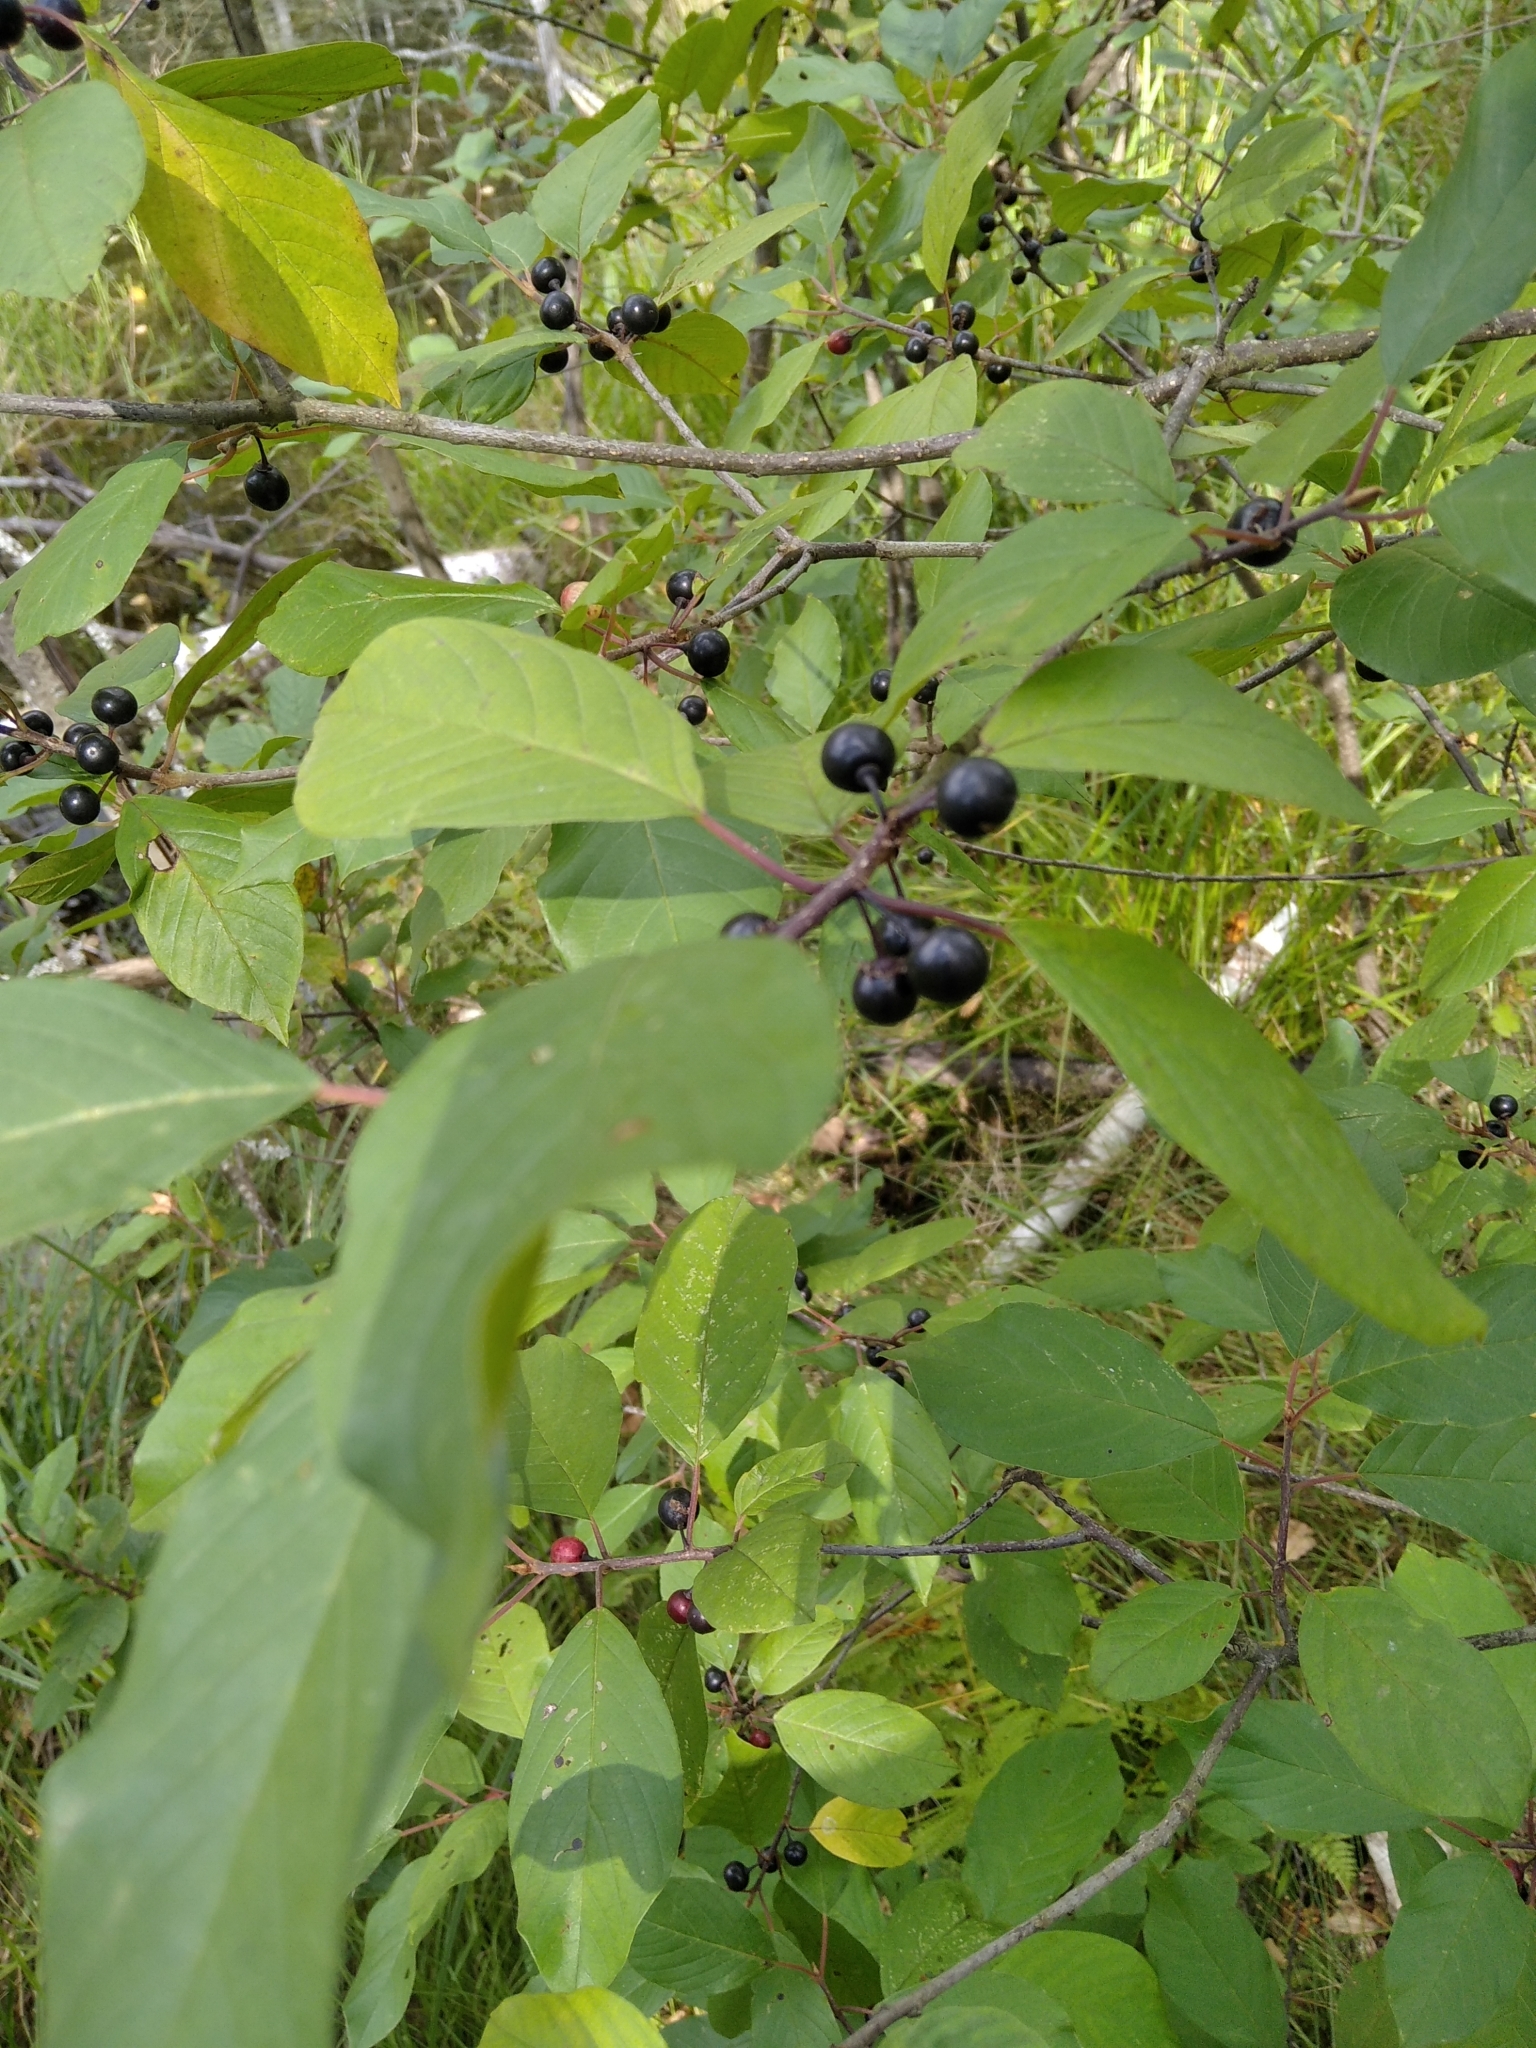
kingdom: Plantae
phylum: Tracheophyta
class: Magnoliopsida
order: Rosales
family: Rhamnaceae
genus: Frangula
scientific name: Frangula alnus
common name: Alder buckthorn
